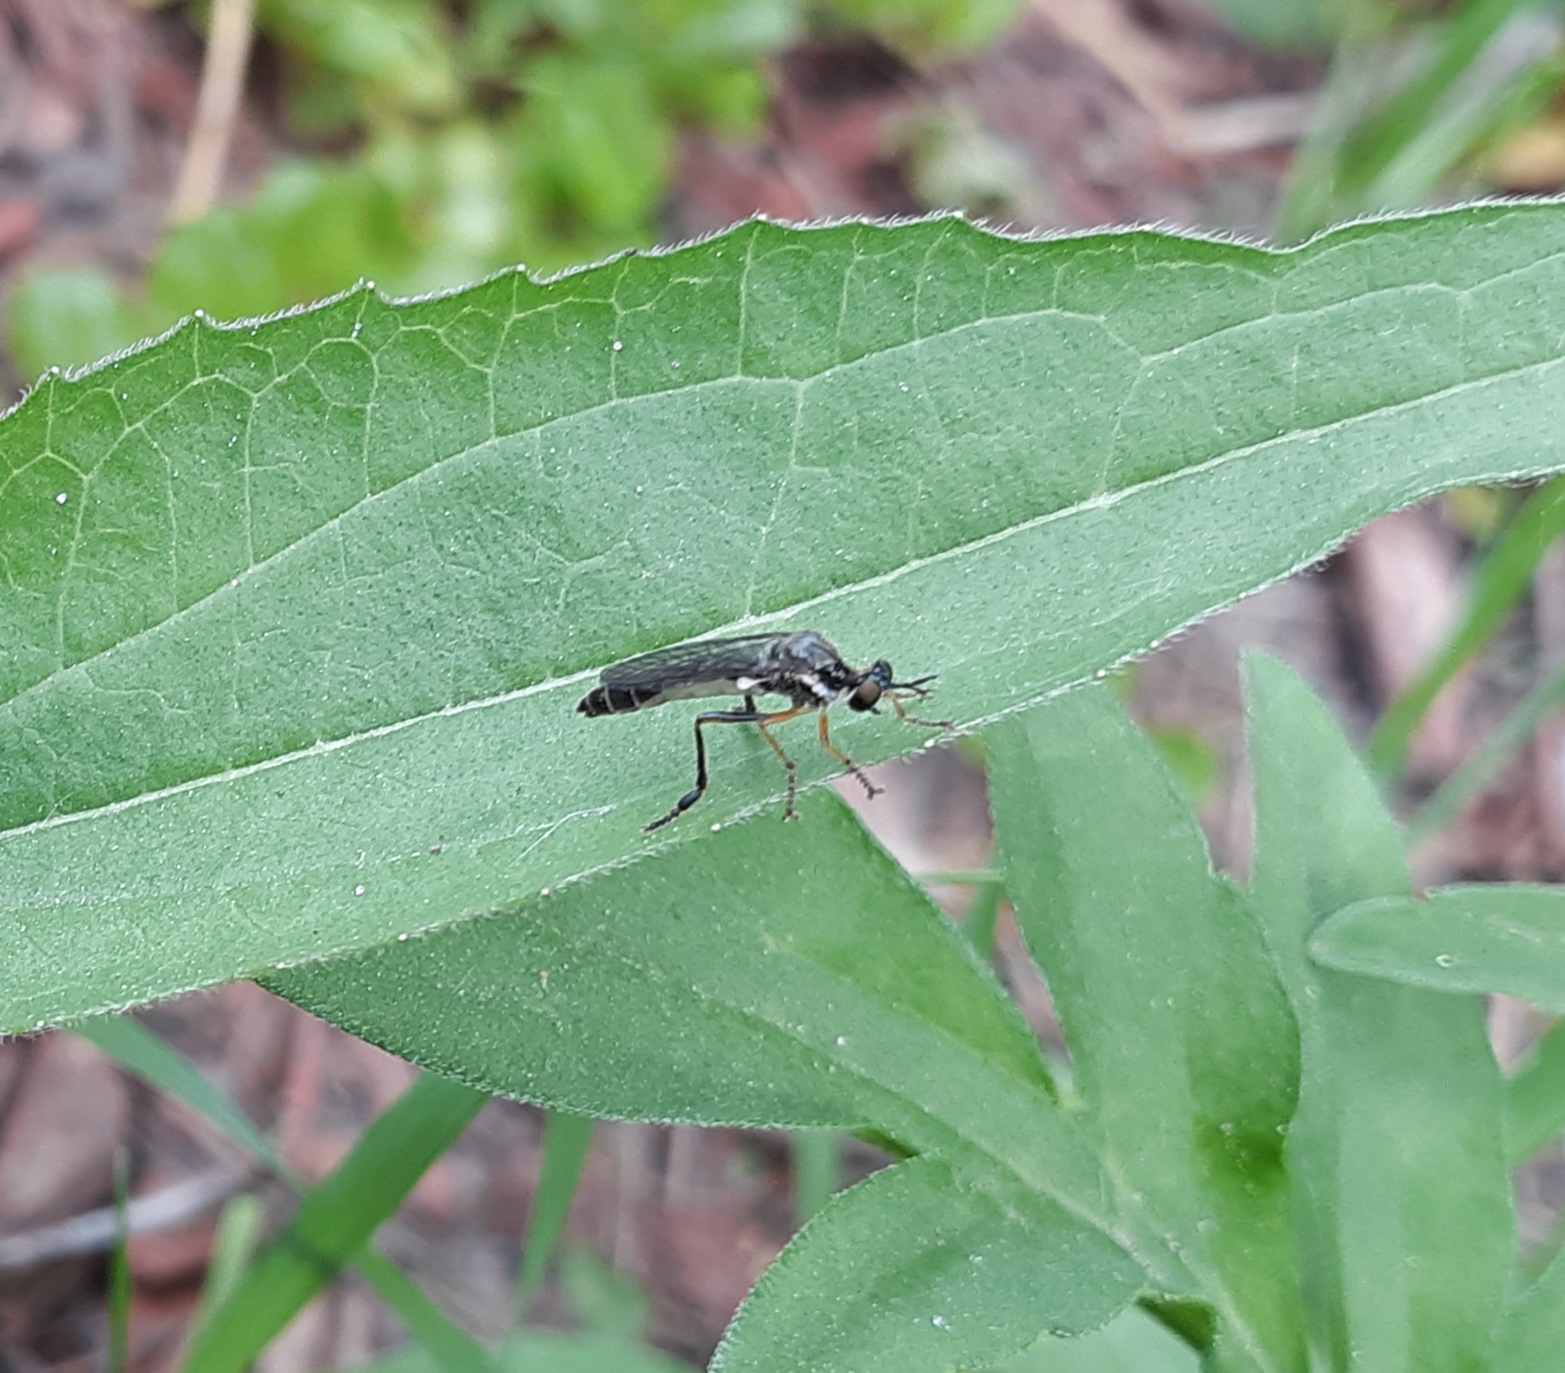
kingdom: Animalia
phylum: Arthropoda
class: Insecta
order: Diptera
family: Asilidae
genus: Dioctria
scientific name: Dioctria hyalipennis
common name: Stripe-legged robberfly
